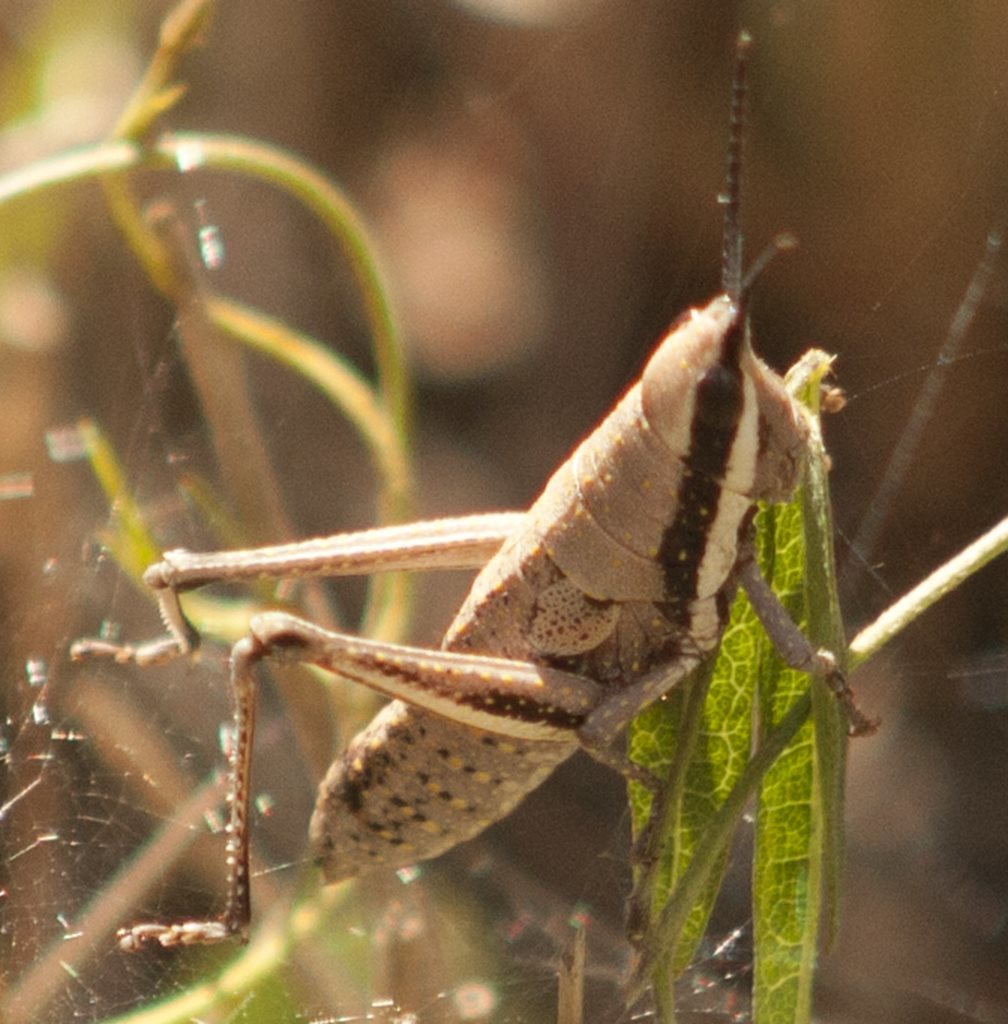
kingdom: Animalia
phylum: Arthropoda
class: Insecta
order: Orthoptera
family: Pyrgomorphidae
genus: Monistria
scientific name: Monistria discrepans
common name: Common pyrgomorph
